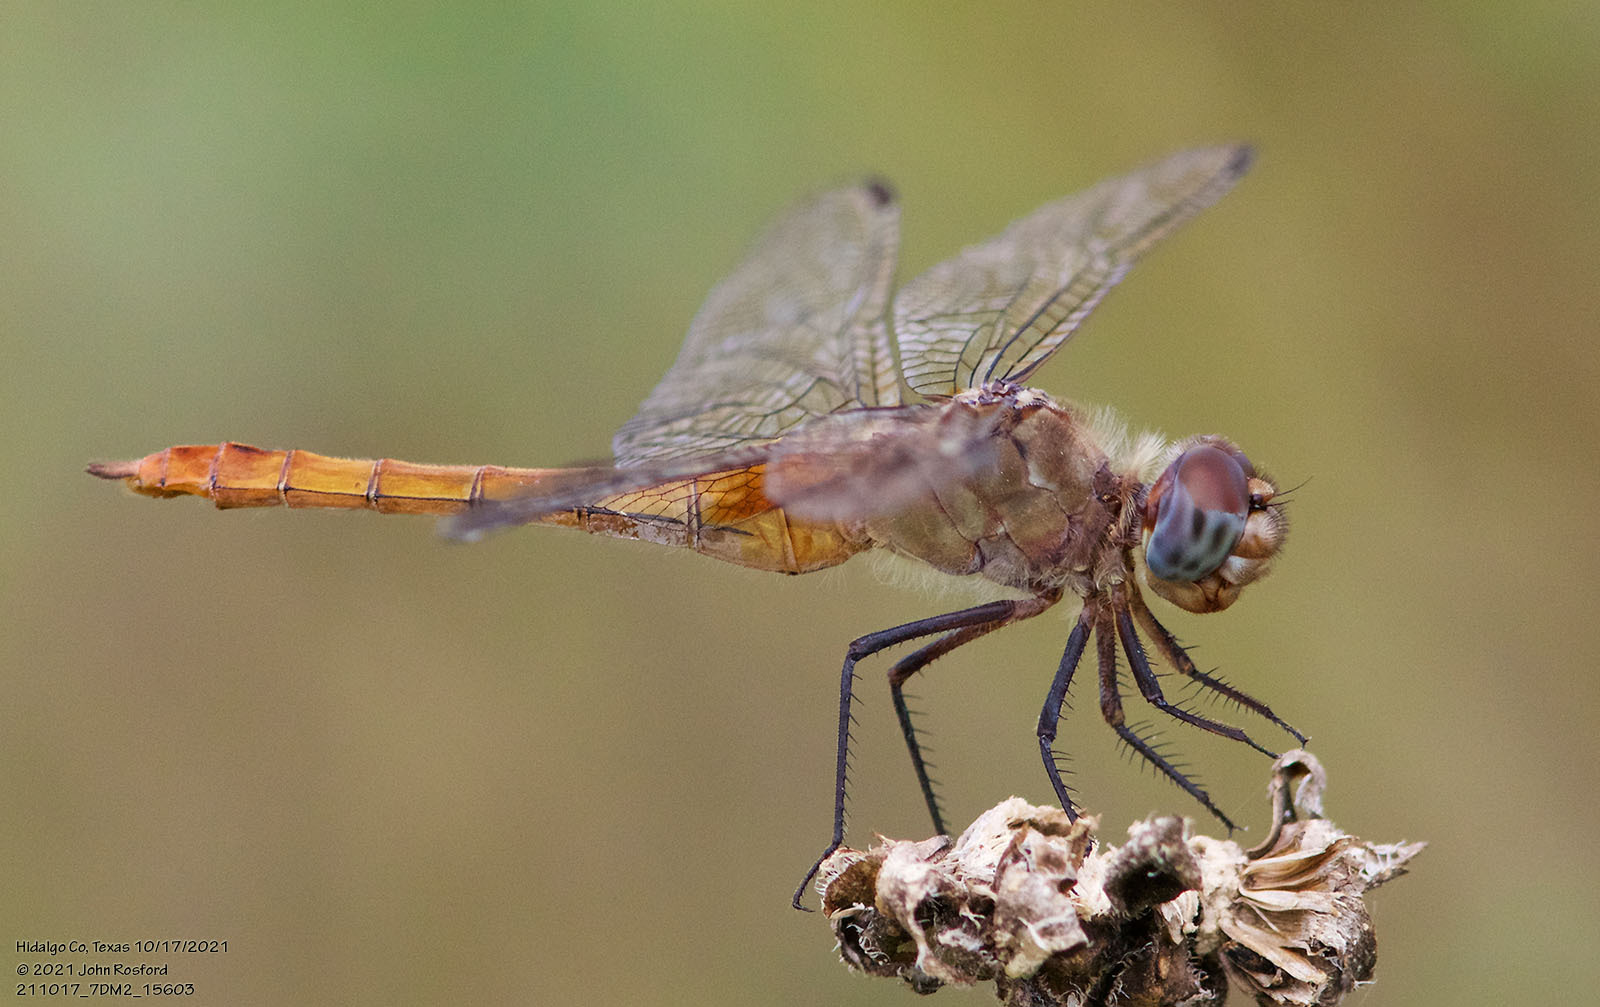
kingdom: Animalia
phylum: Arthropoda
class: Insecta
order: Odonata
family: Libellulidae
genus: Brachymesia
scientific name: Brachymesia furcata
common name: Red-taled pennant
